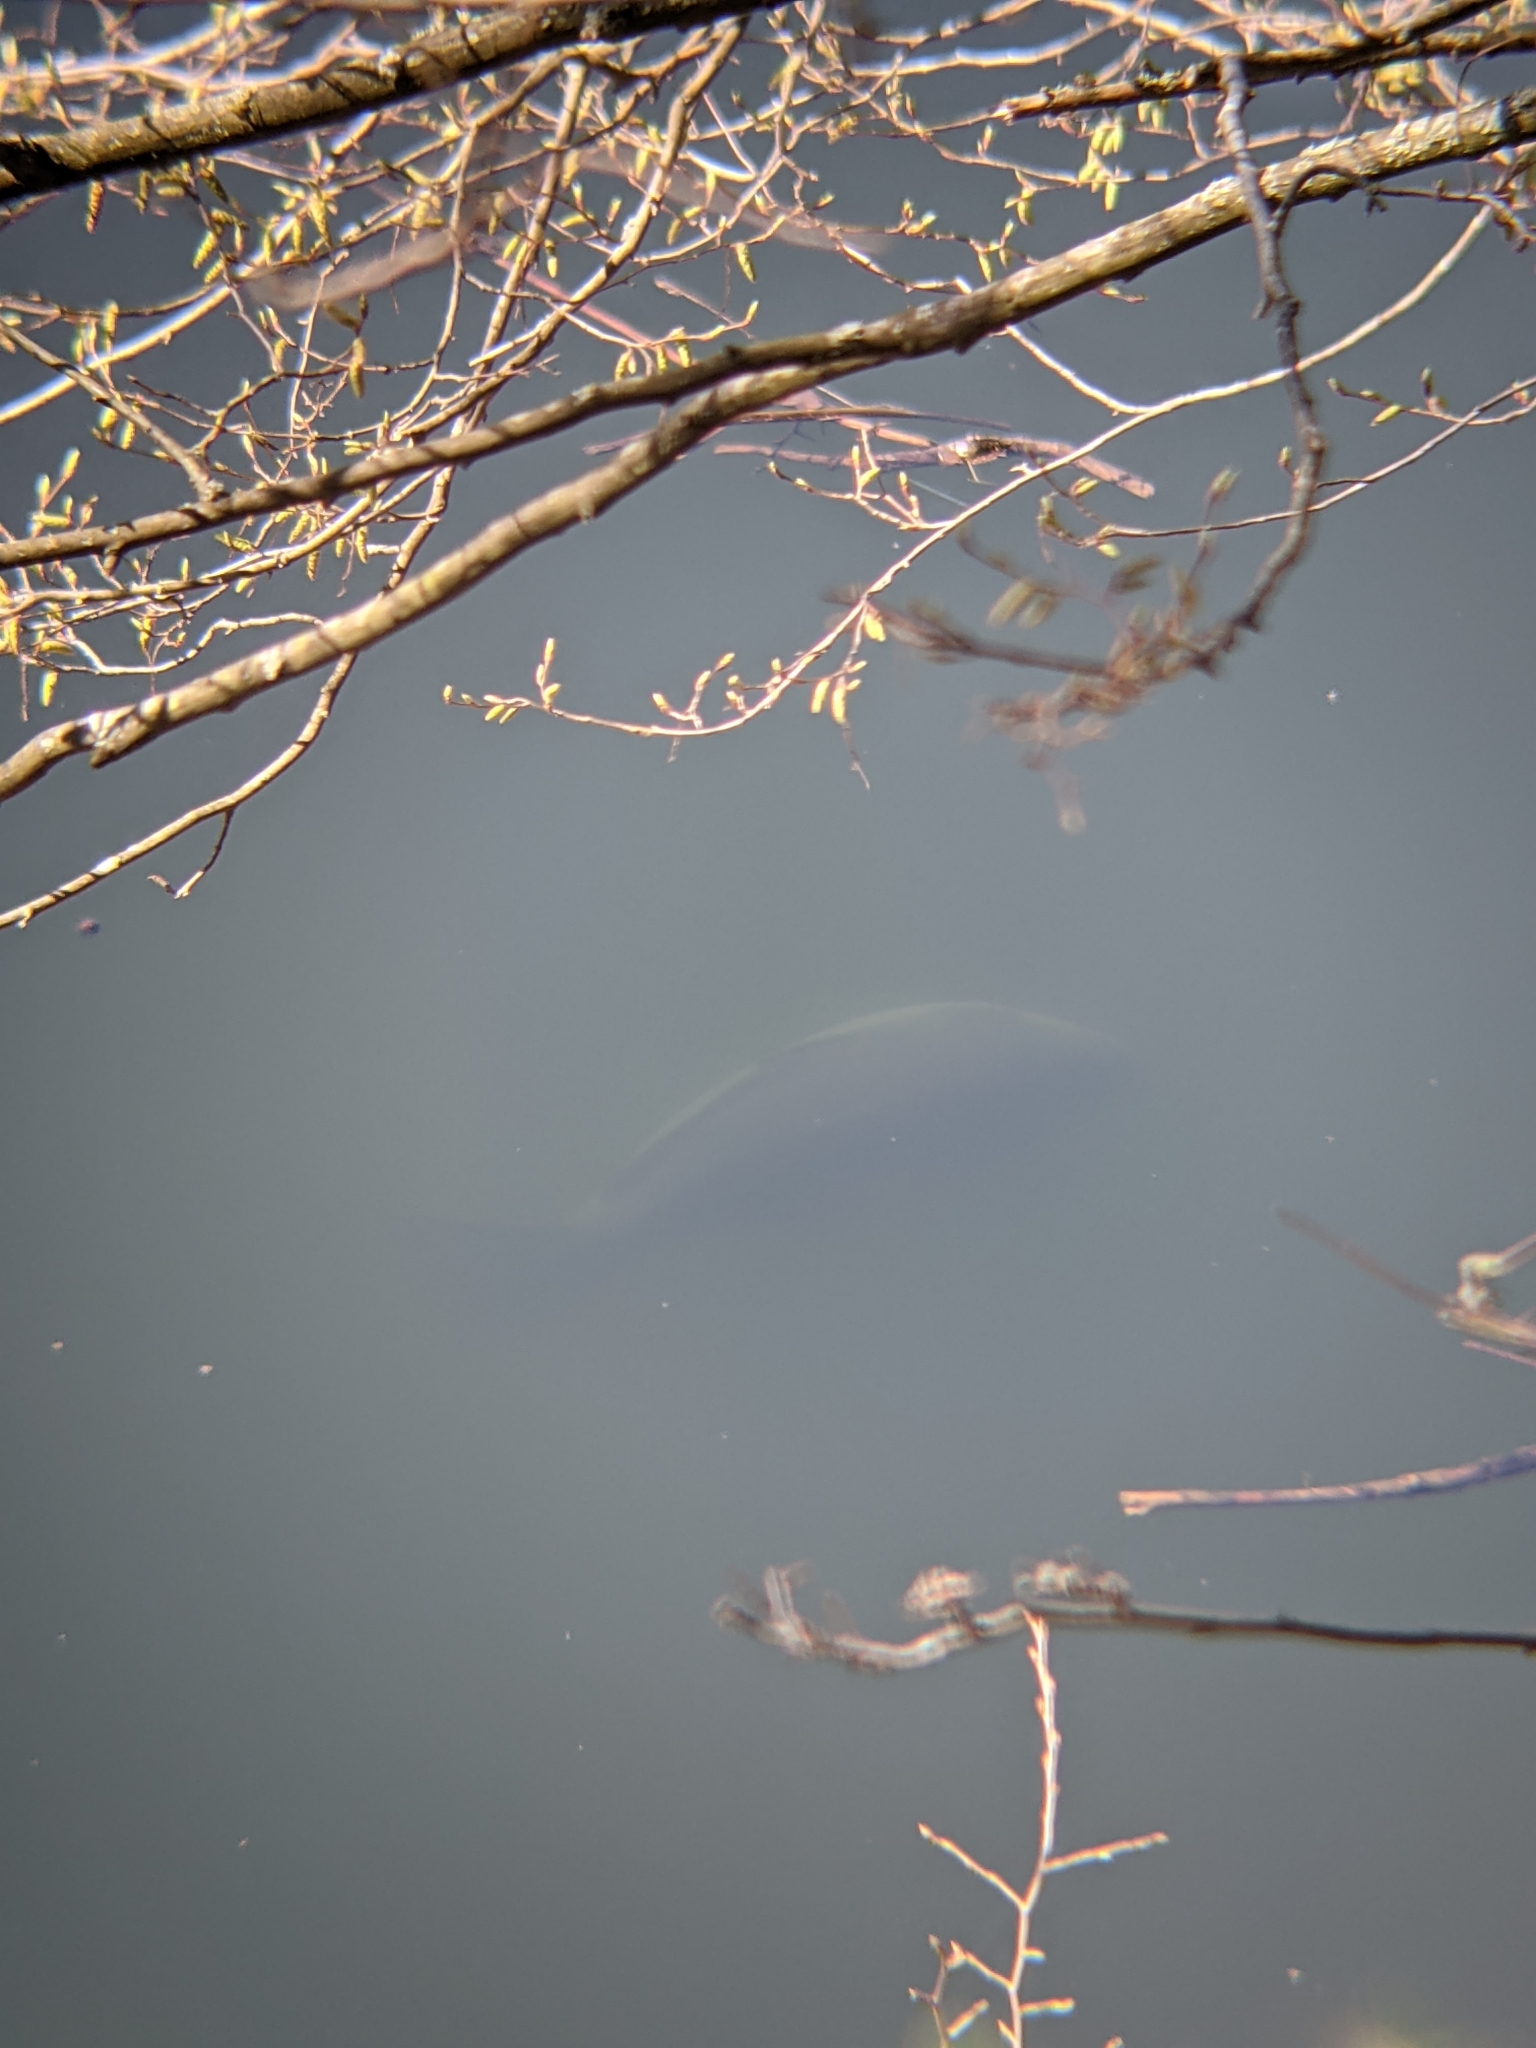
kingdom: Animalia
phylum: Chordata
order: Cypriniformes
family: Cyprinidae
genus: Cyprinus
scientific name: Cyprinus carpio
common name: Common carp
